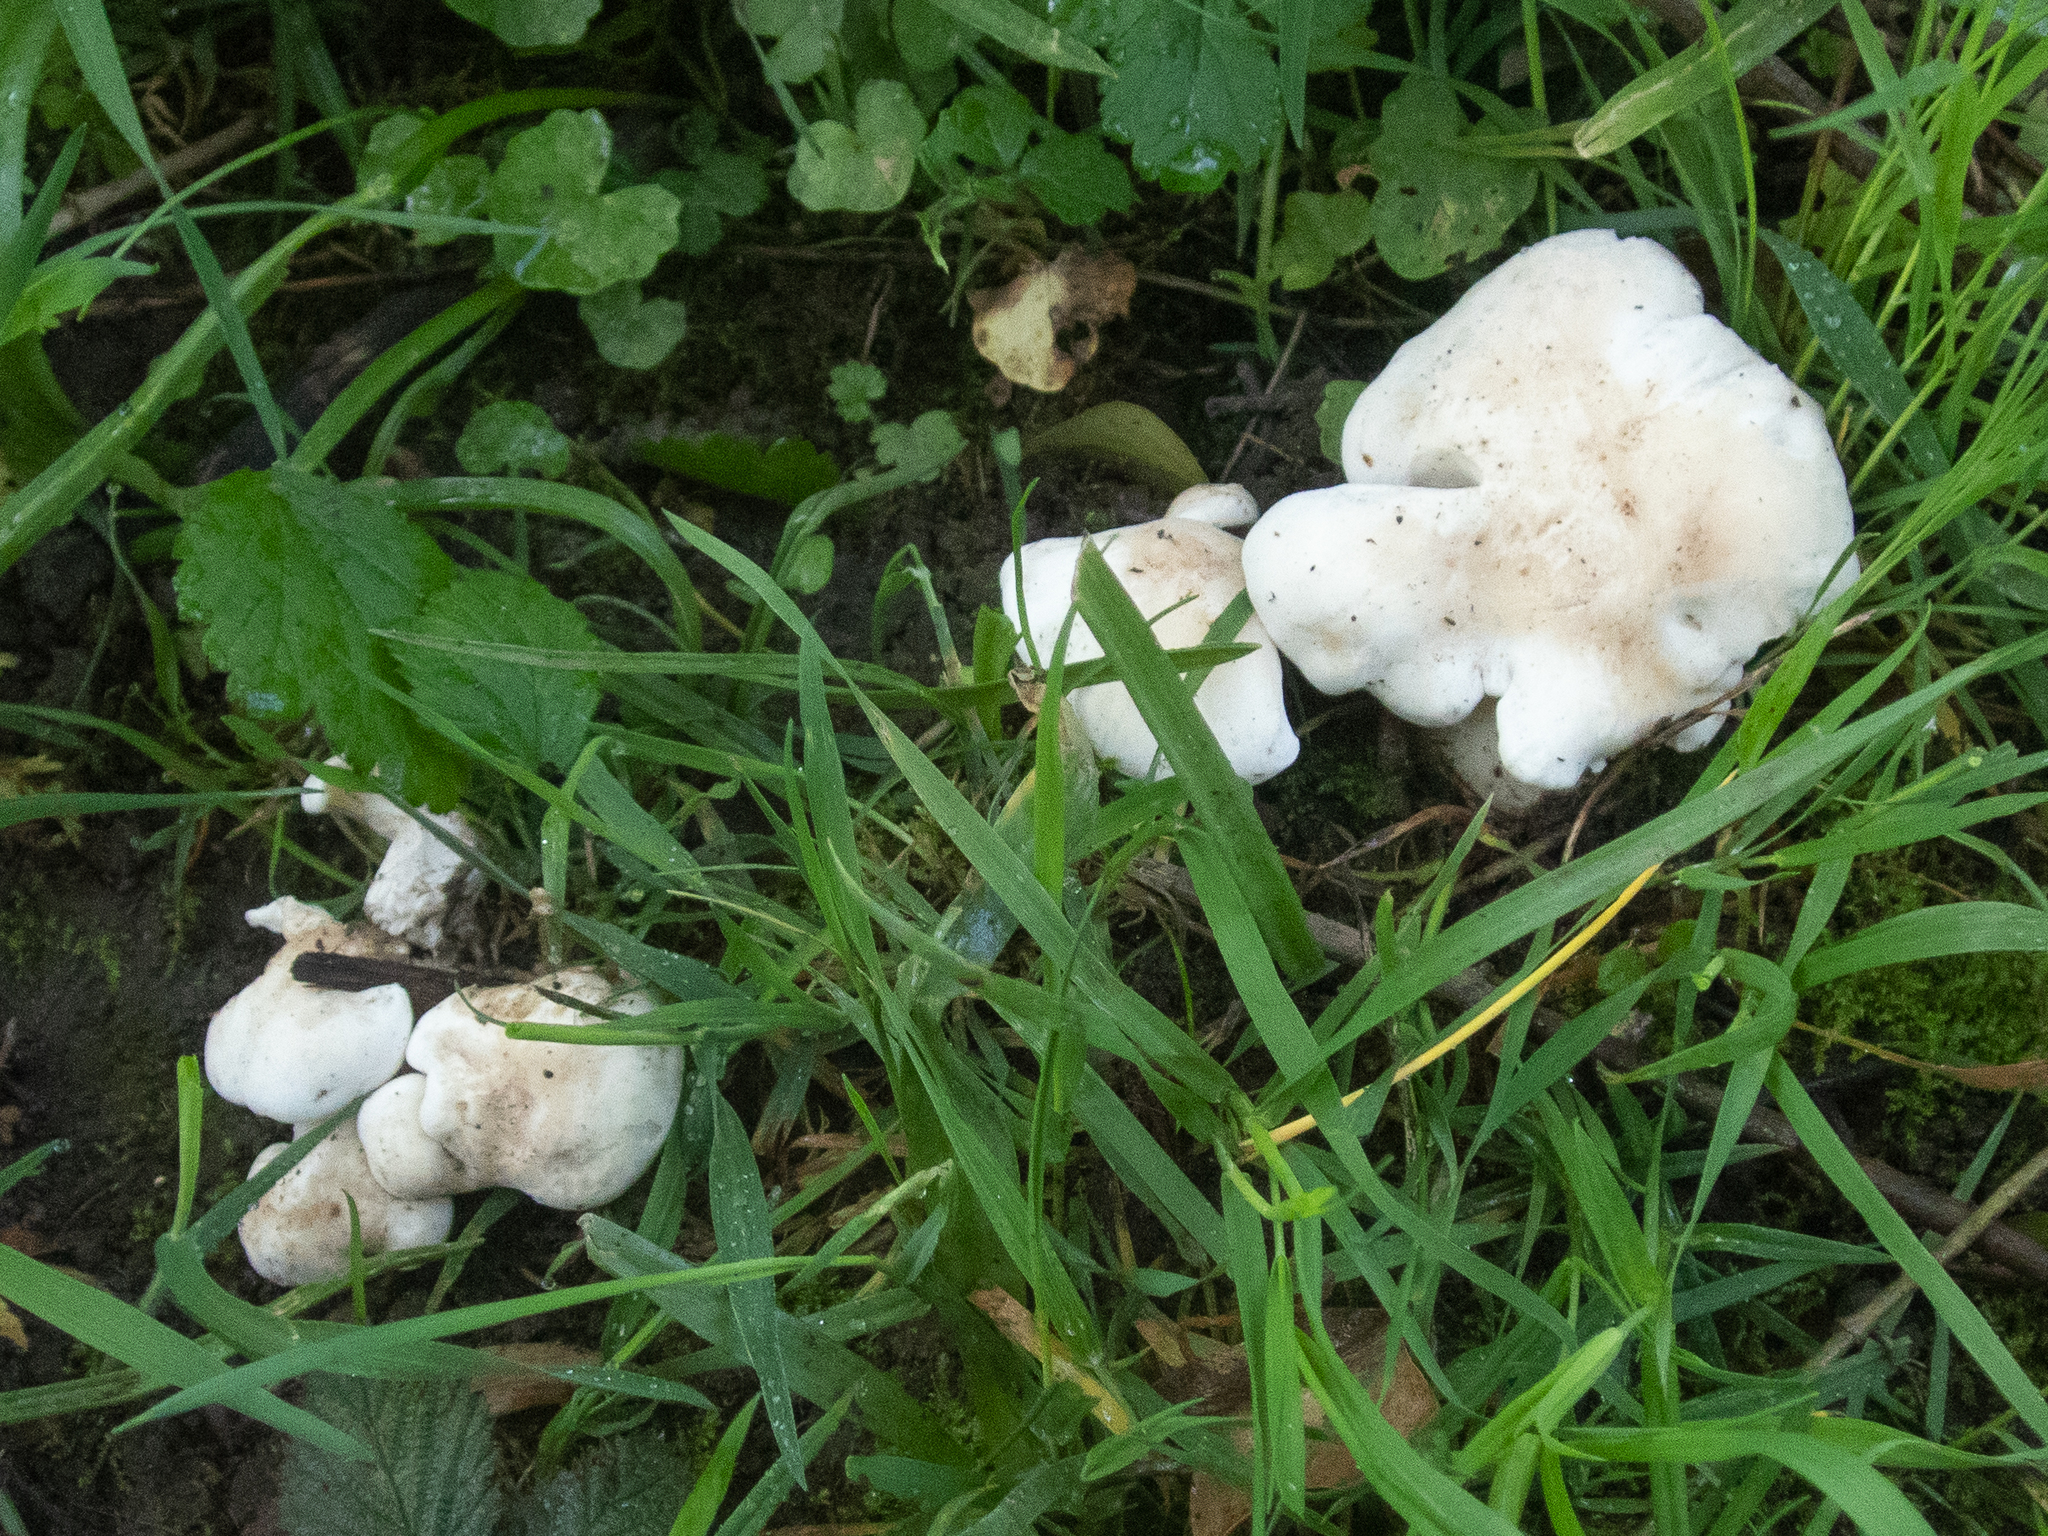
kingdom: Fungi
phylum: Basidiomycota
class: Agaricomycetes
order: Agaricales
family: Lyophyllaceae
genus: Calocybe
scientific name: Calocybe gambosa
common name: St. george's mushroom
